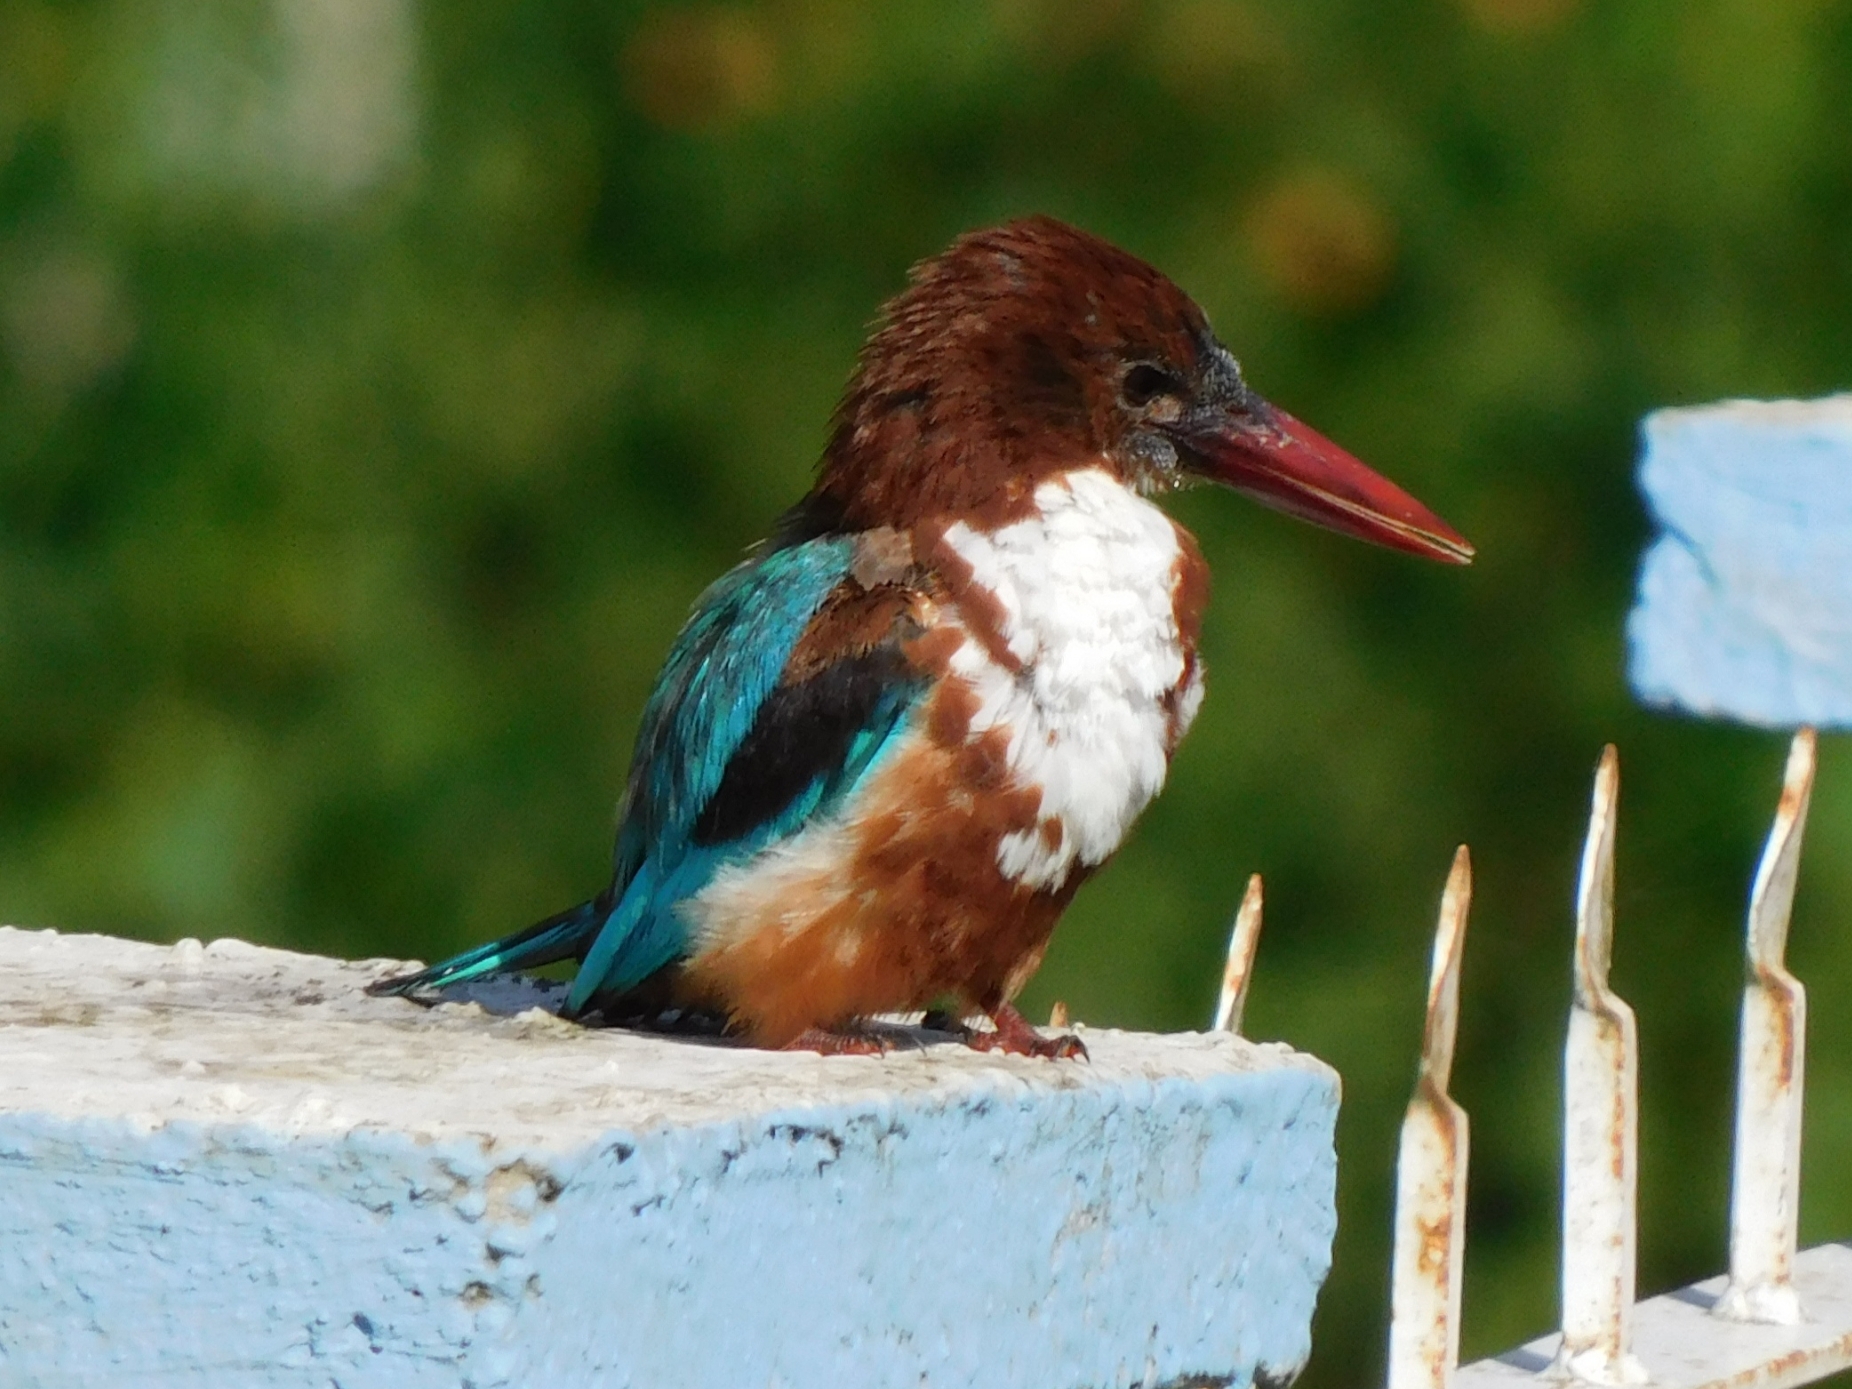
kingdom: Animalia
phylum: Chordata
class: Aves
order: Coraciiformes
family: Alcedinidae
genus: Halcyon
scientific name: Halcyon smyrnensis
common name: White-throated kingfisher
